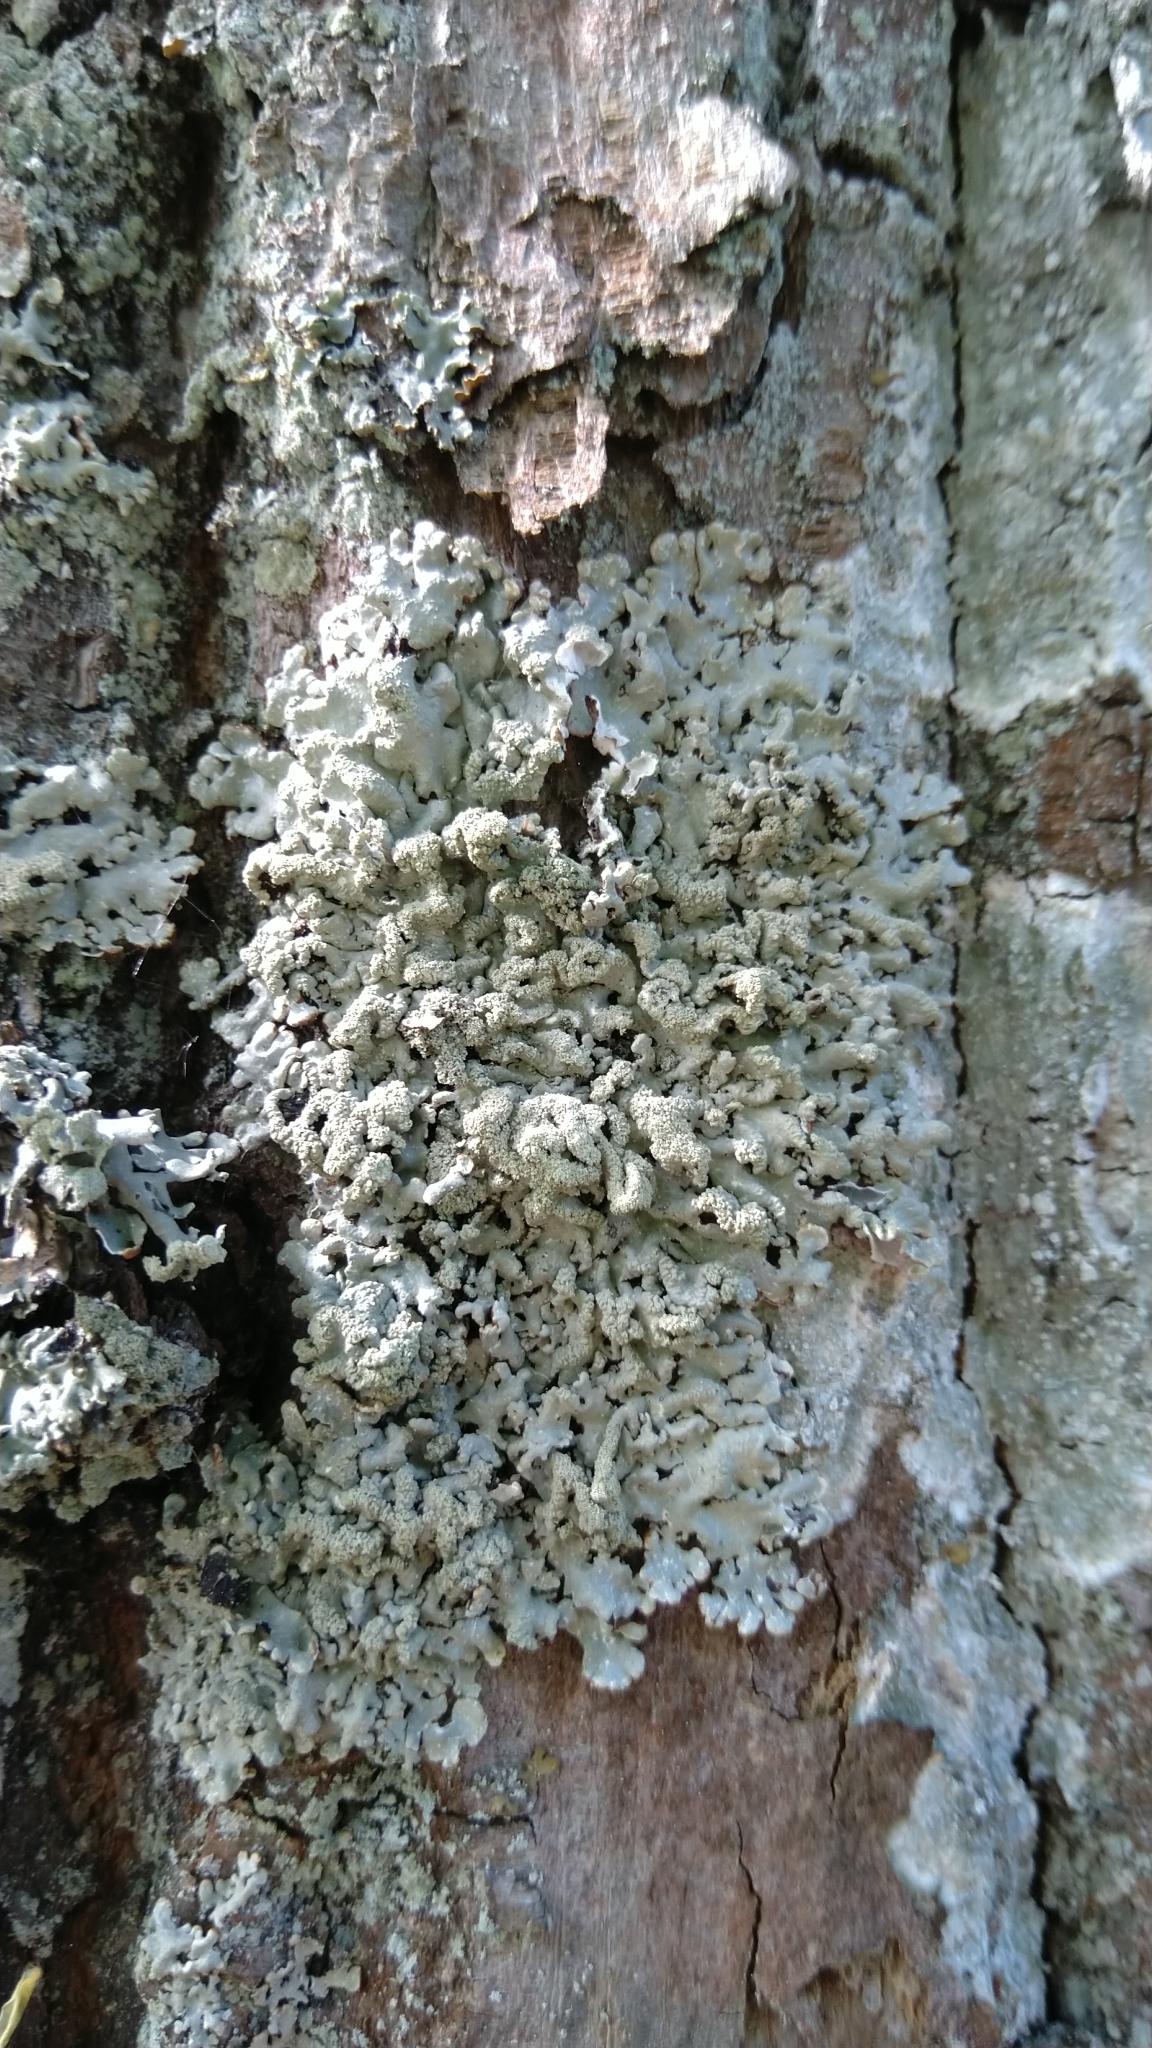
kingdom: Fungi
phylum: Ascomycota
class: Lecanoromycetes
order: Lecanorales
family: Parmeliaceae
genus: Hypogymnia
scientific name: Hypogymnia farinacea
